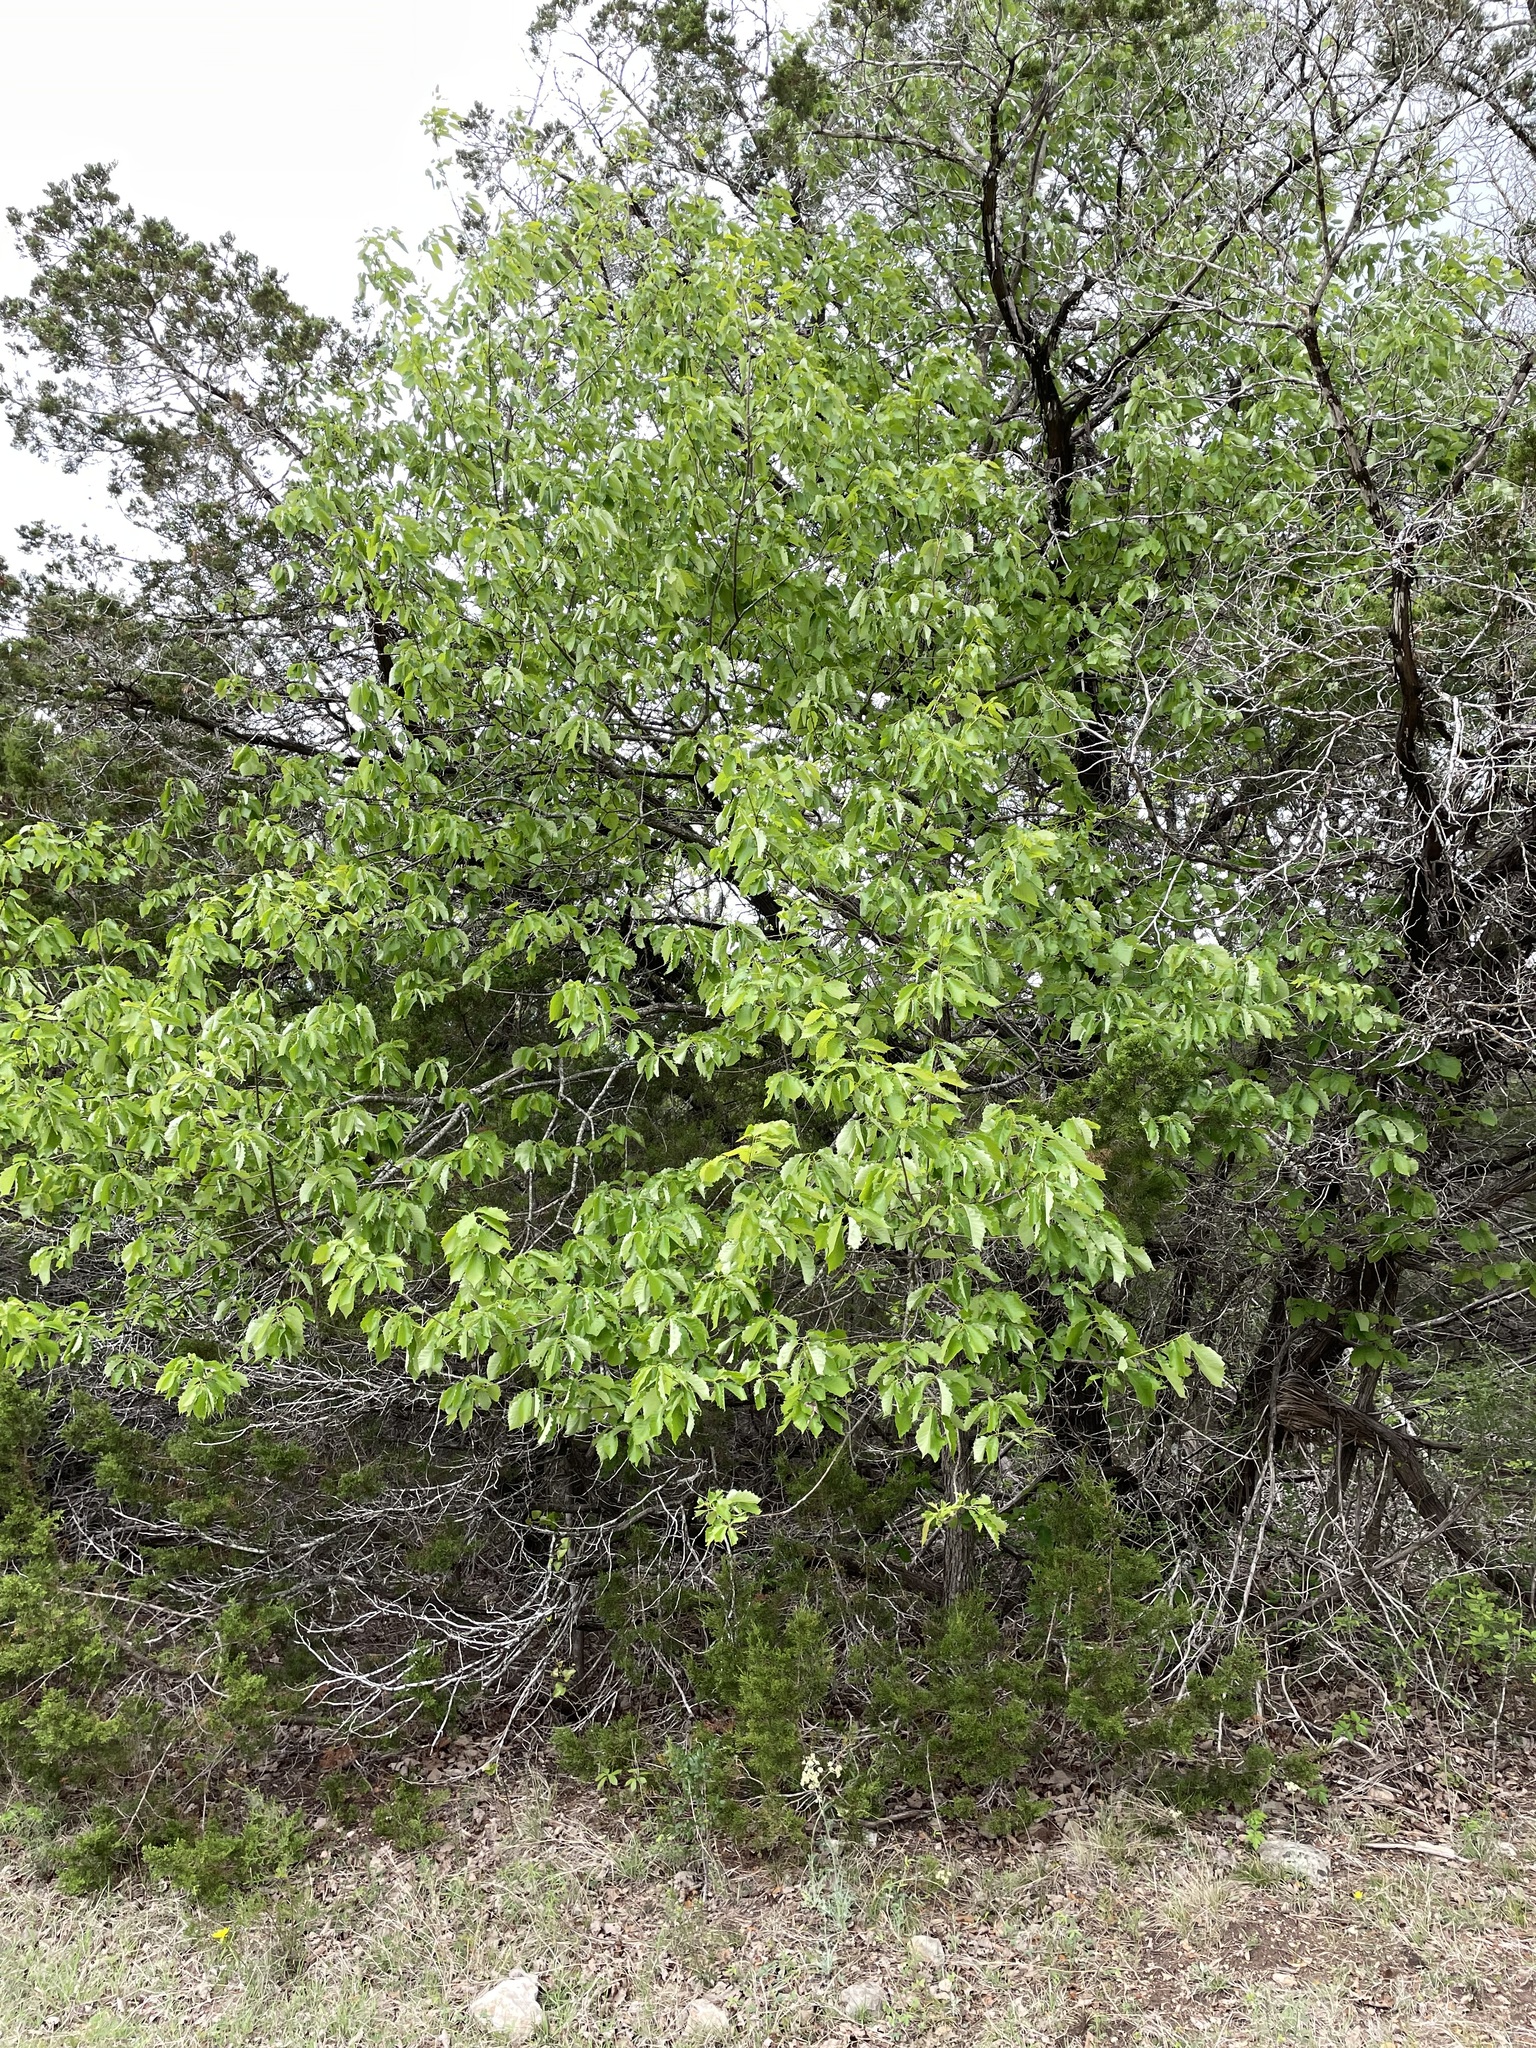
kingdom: Plantae
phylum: Tracheophyta
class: Magnoliopsida
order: Fagales
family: Fagaceae
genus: Quercus
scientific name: Quercus muehlenbergii
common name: Chinkapin oak
